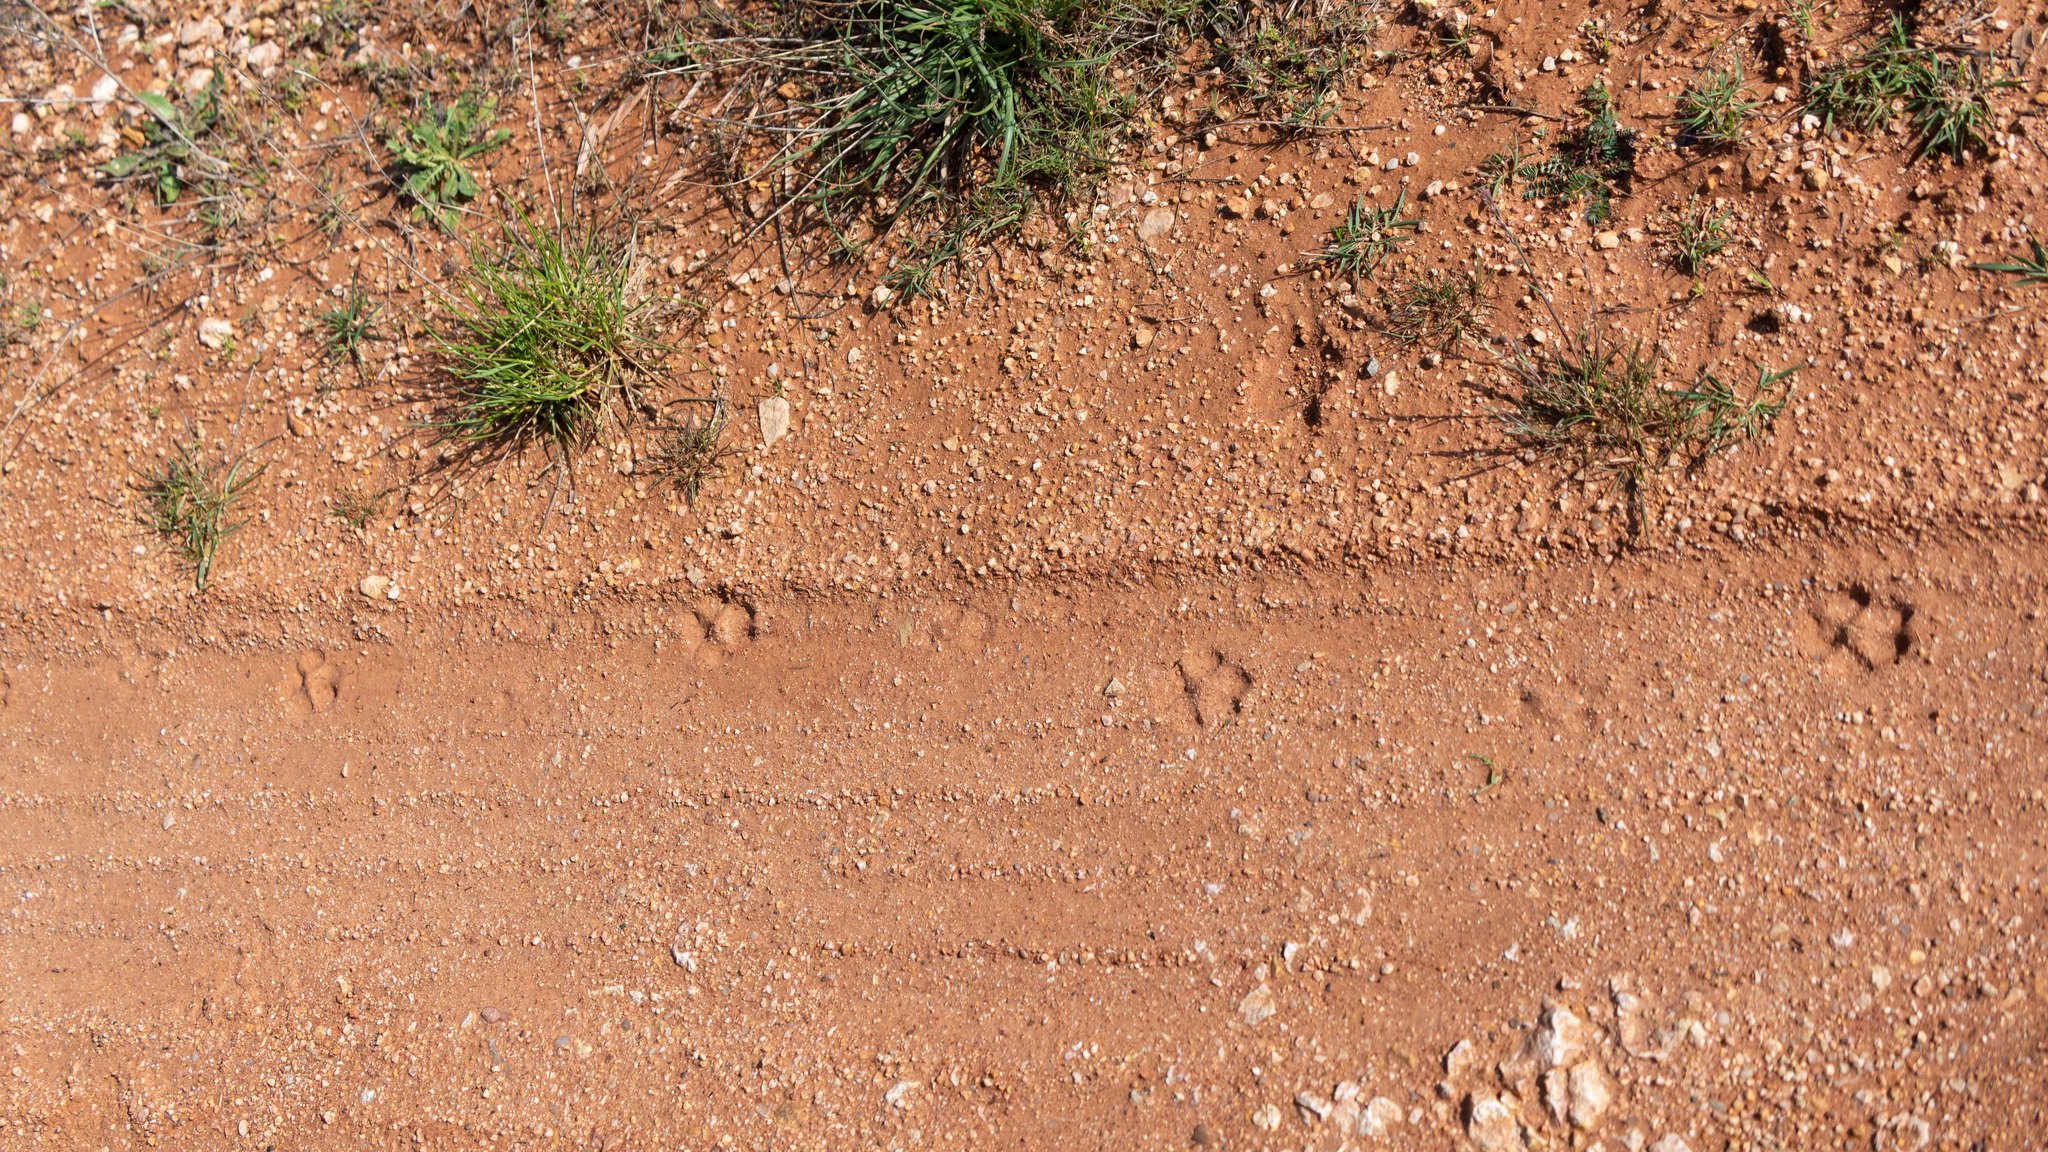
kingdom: Animalia
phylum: Chordata
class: Mammalia
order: Carnivora
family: Canidae
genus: Vulpes
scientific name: Vulpes vulpes
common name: Red fox
